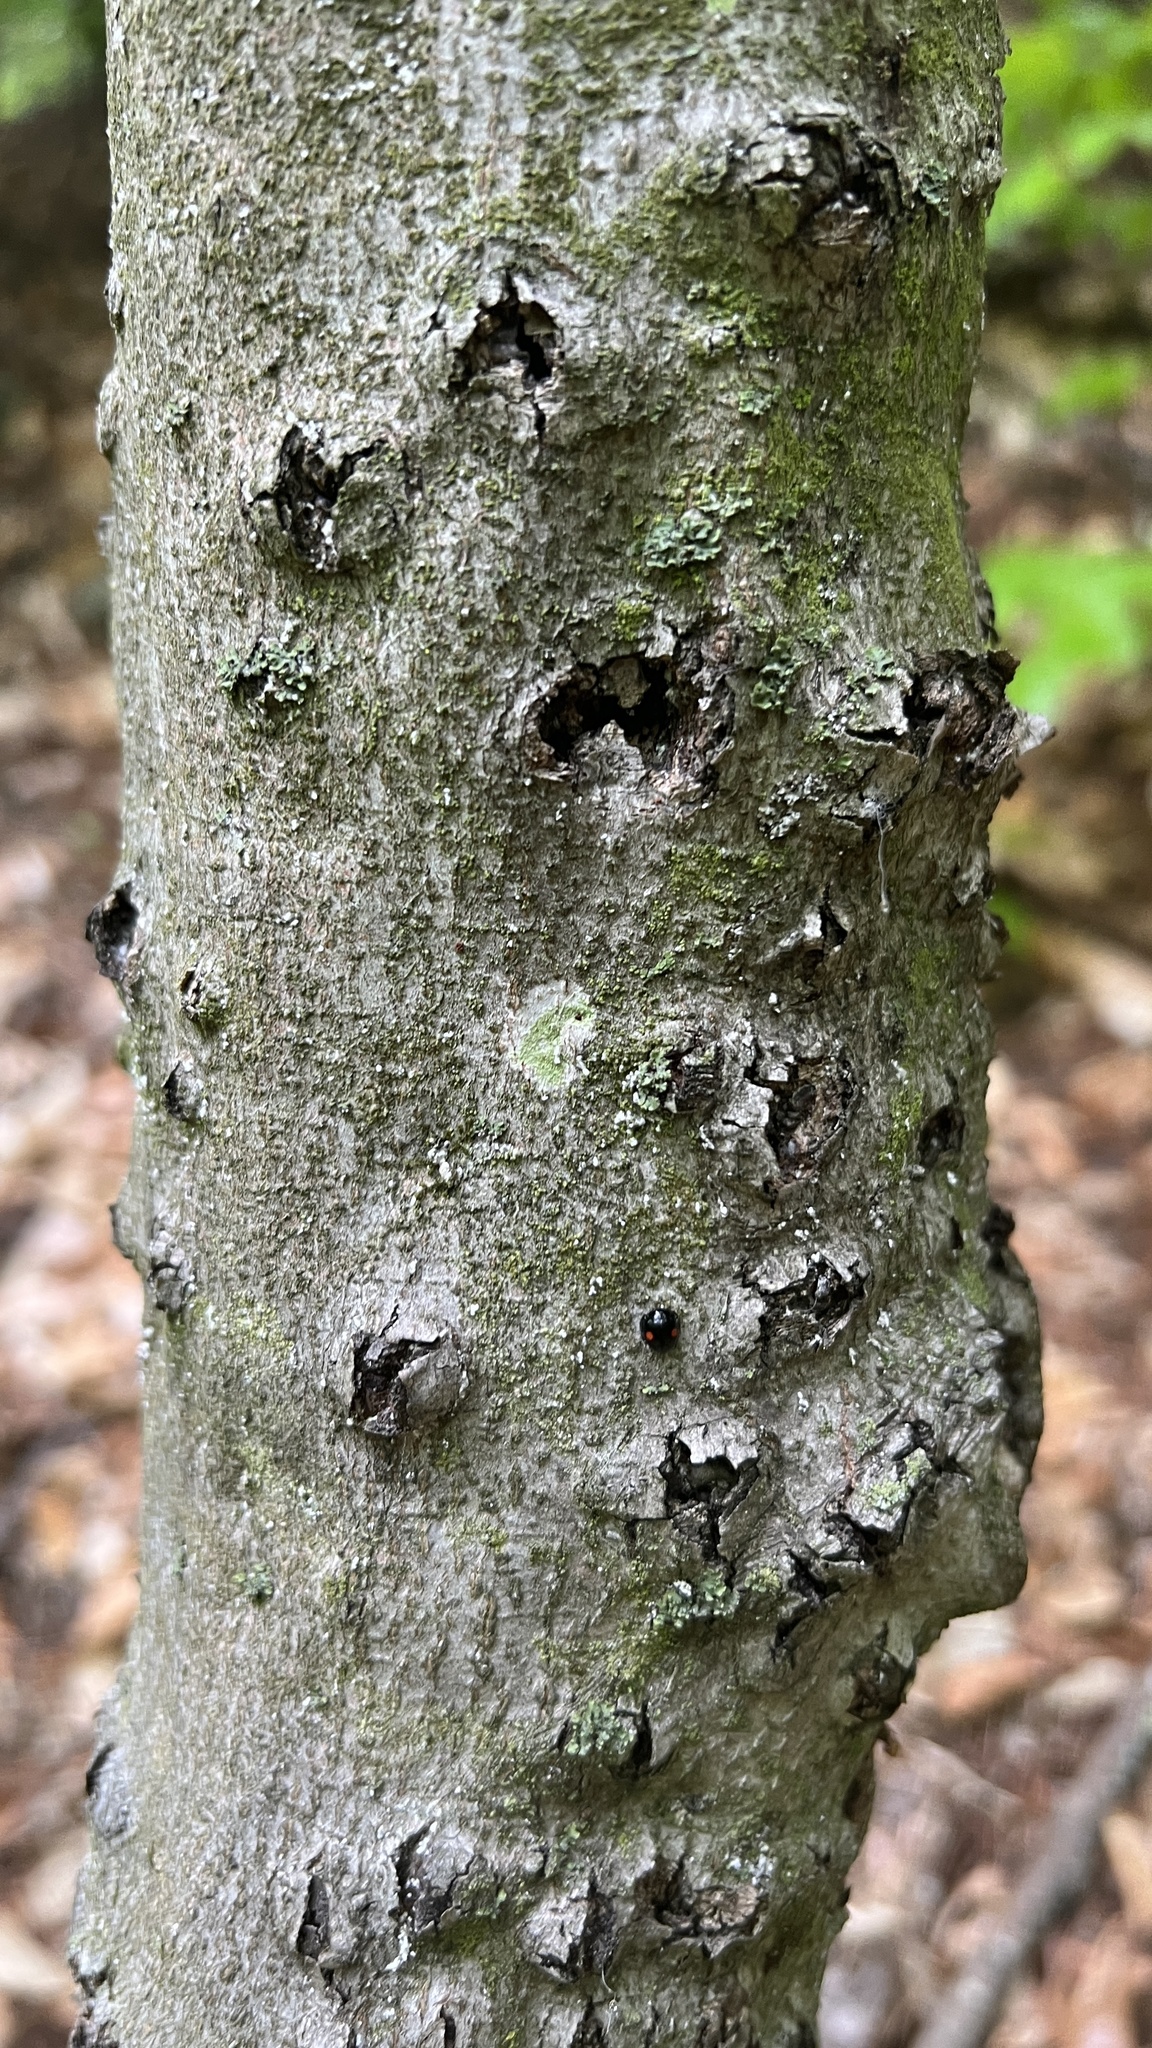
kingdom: Fungi
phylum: Ascomycota
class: Sordariomycetes
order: Hypocreales
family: Nectriaceae
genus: Neonectria
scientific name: Neonectria faginata
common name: Beech bark canker
